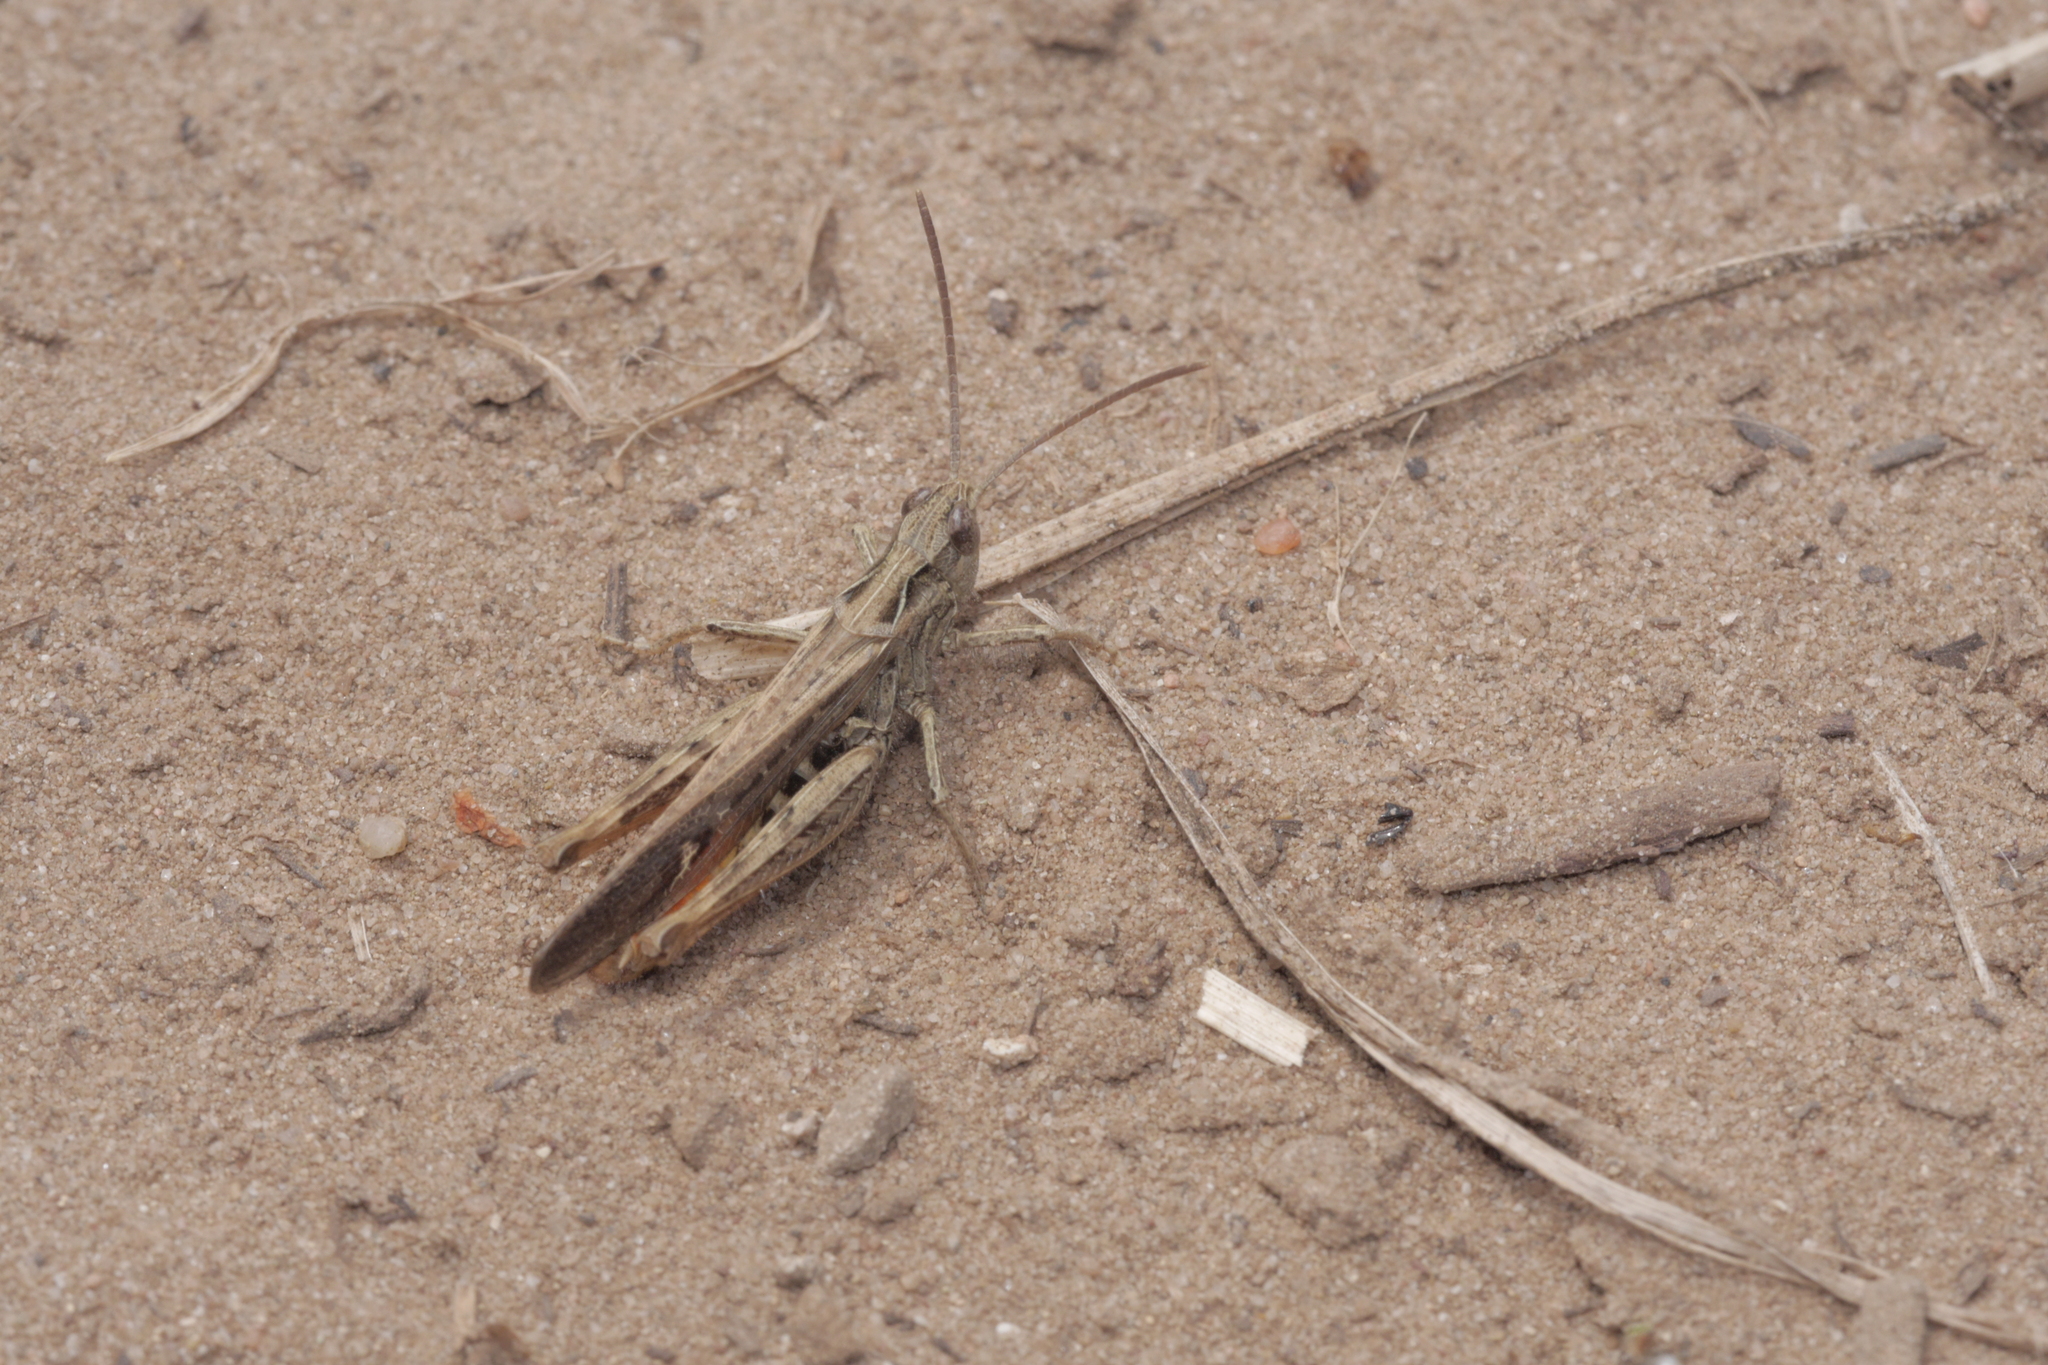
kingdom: Animalia
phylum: Arthropoda
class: Insecta
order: Orthoptera
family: Acrididae
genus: Chorthippus
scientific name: Chorthippus brunneus
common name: Field grasshopper
